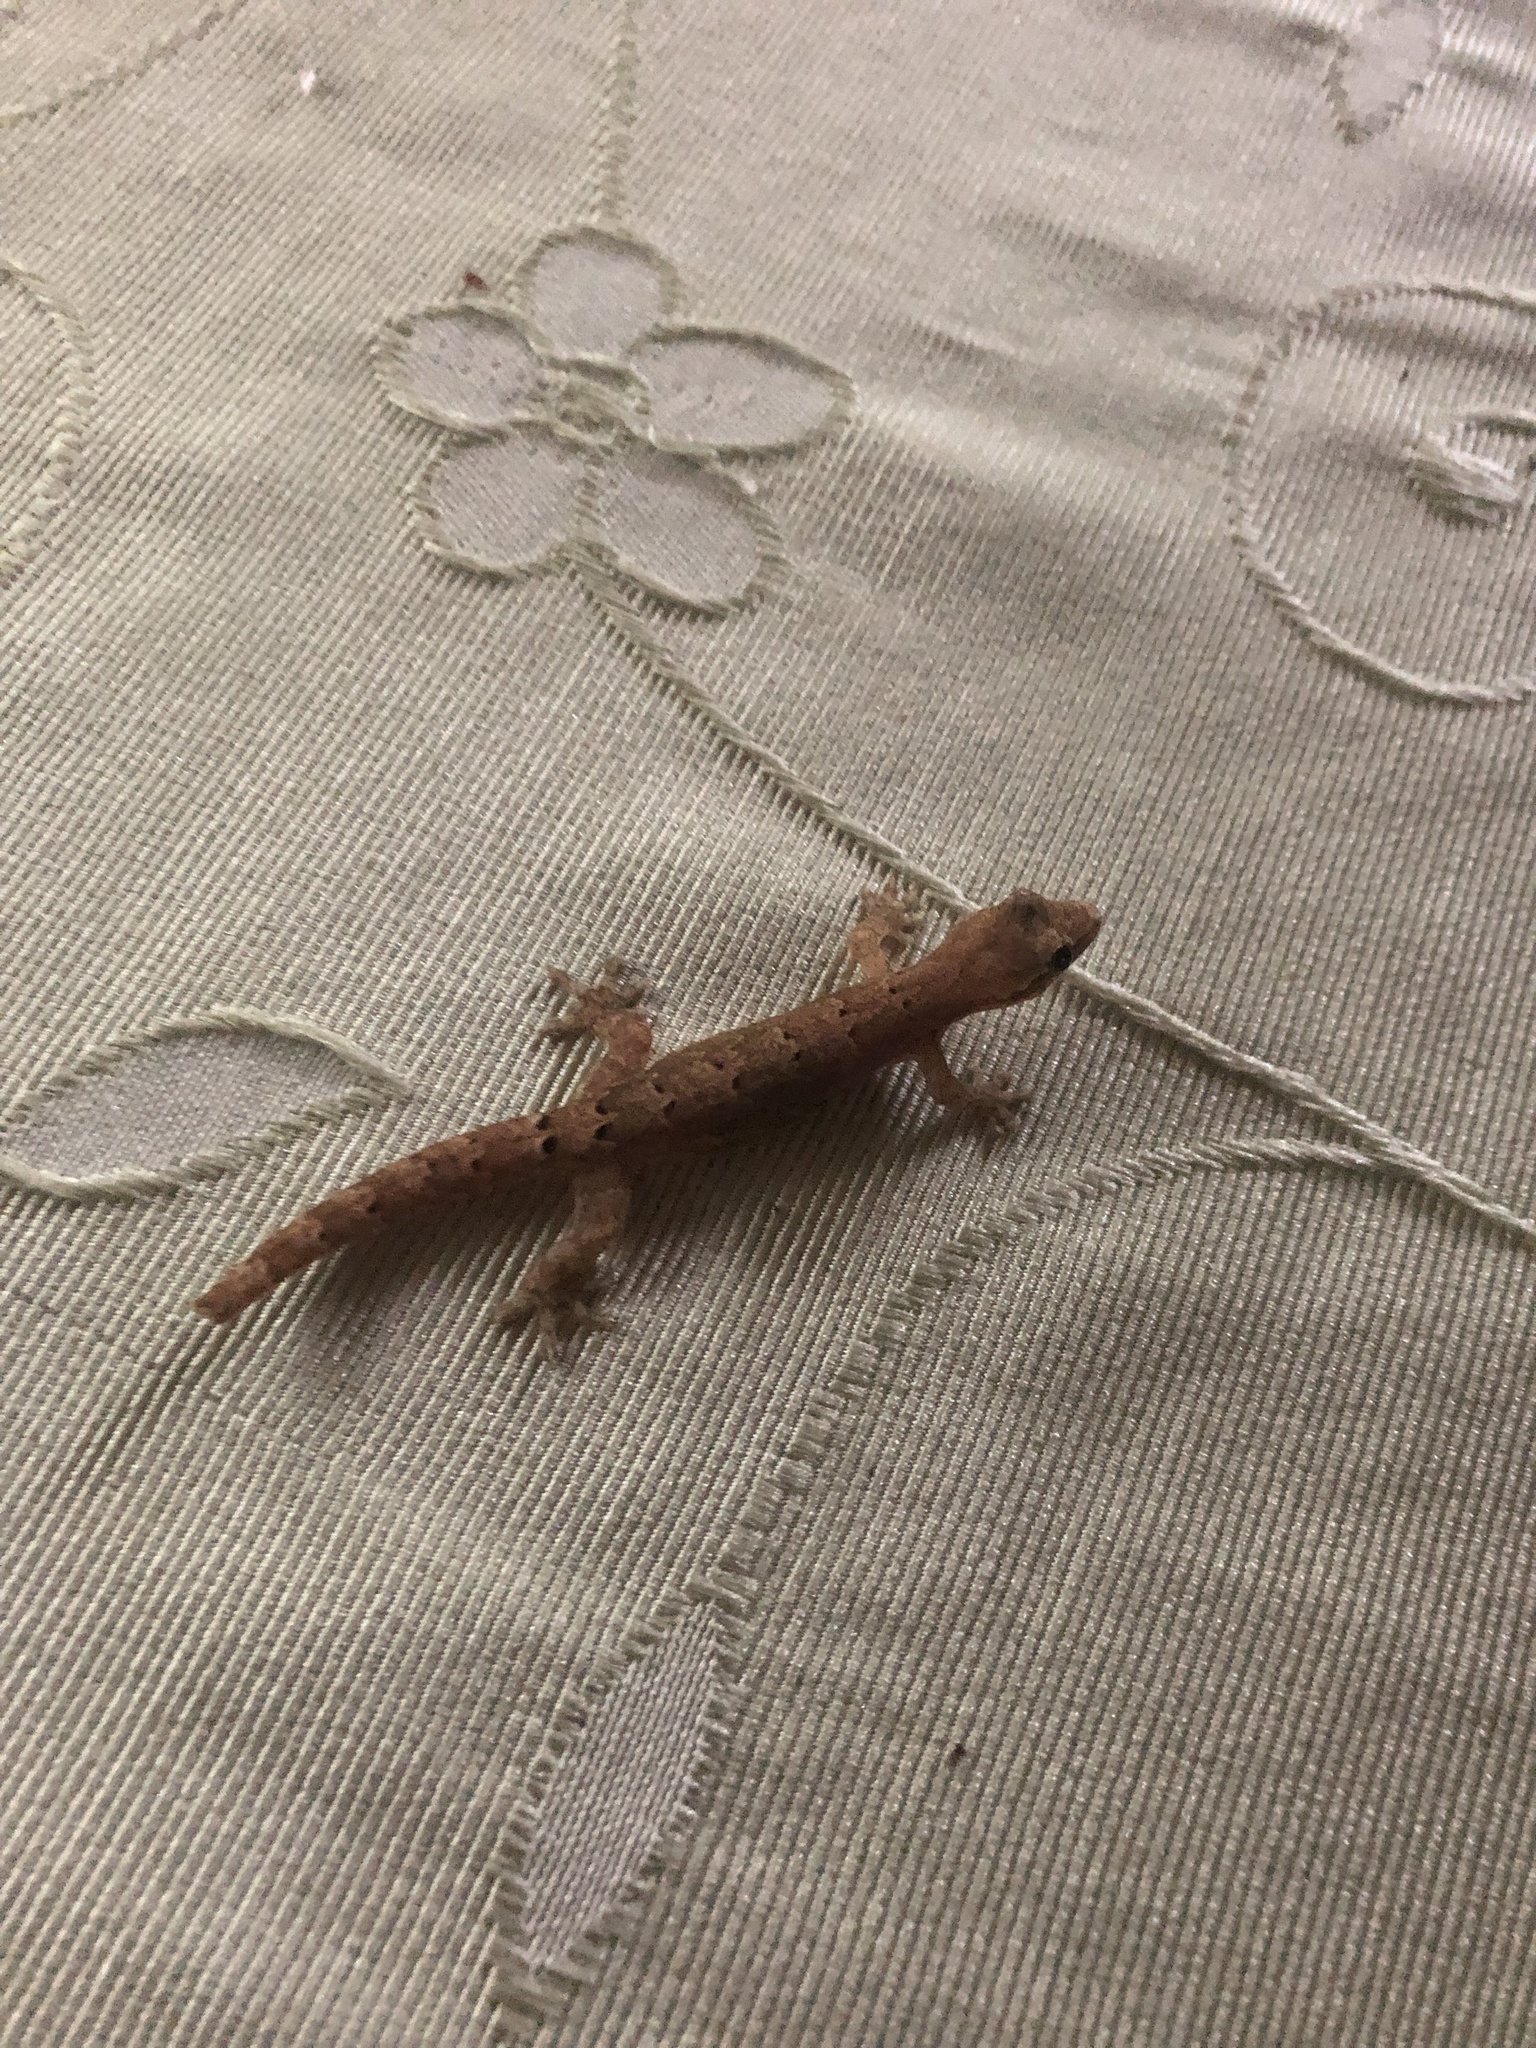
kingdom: Animalia
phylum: Chordata
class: Squamata
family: Gekkonidae
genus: Lepidodactylus
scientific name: Lepidodactylus lugubris
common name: Mourning gecko
